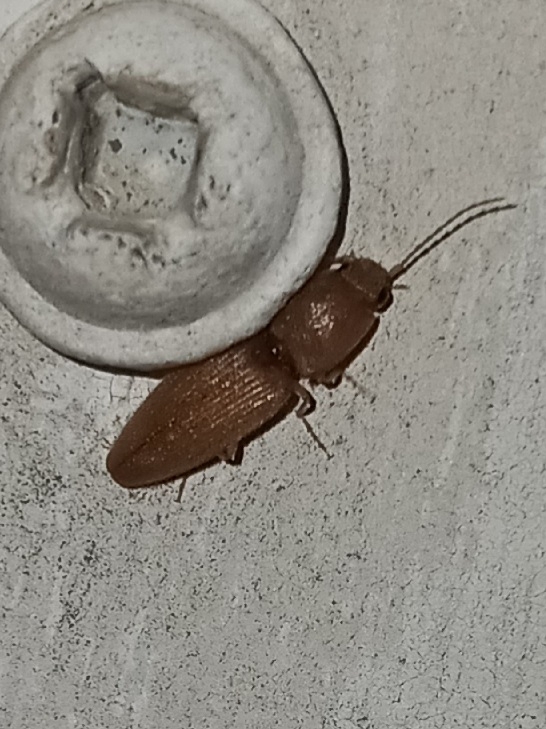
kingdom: Animalia
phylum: Arthropoda
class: Insecta
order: Coleoptera
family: Elateridae
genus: Monocrepidius
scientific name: Monocrepidius scissus
